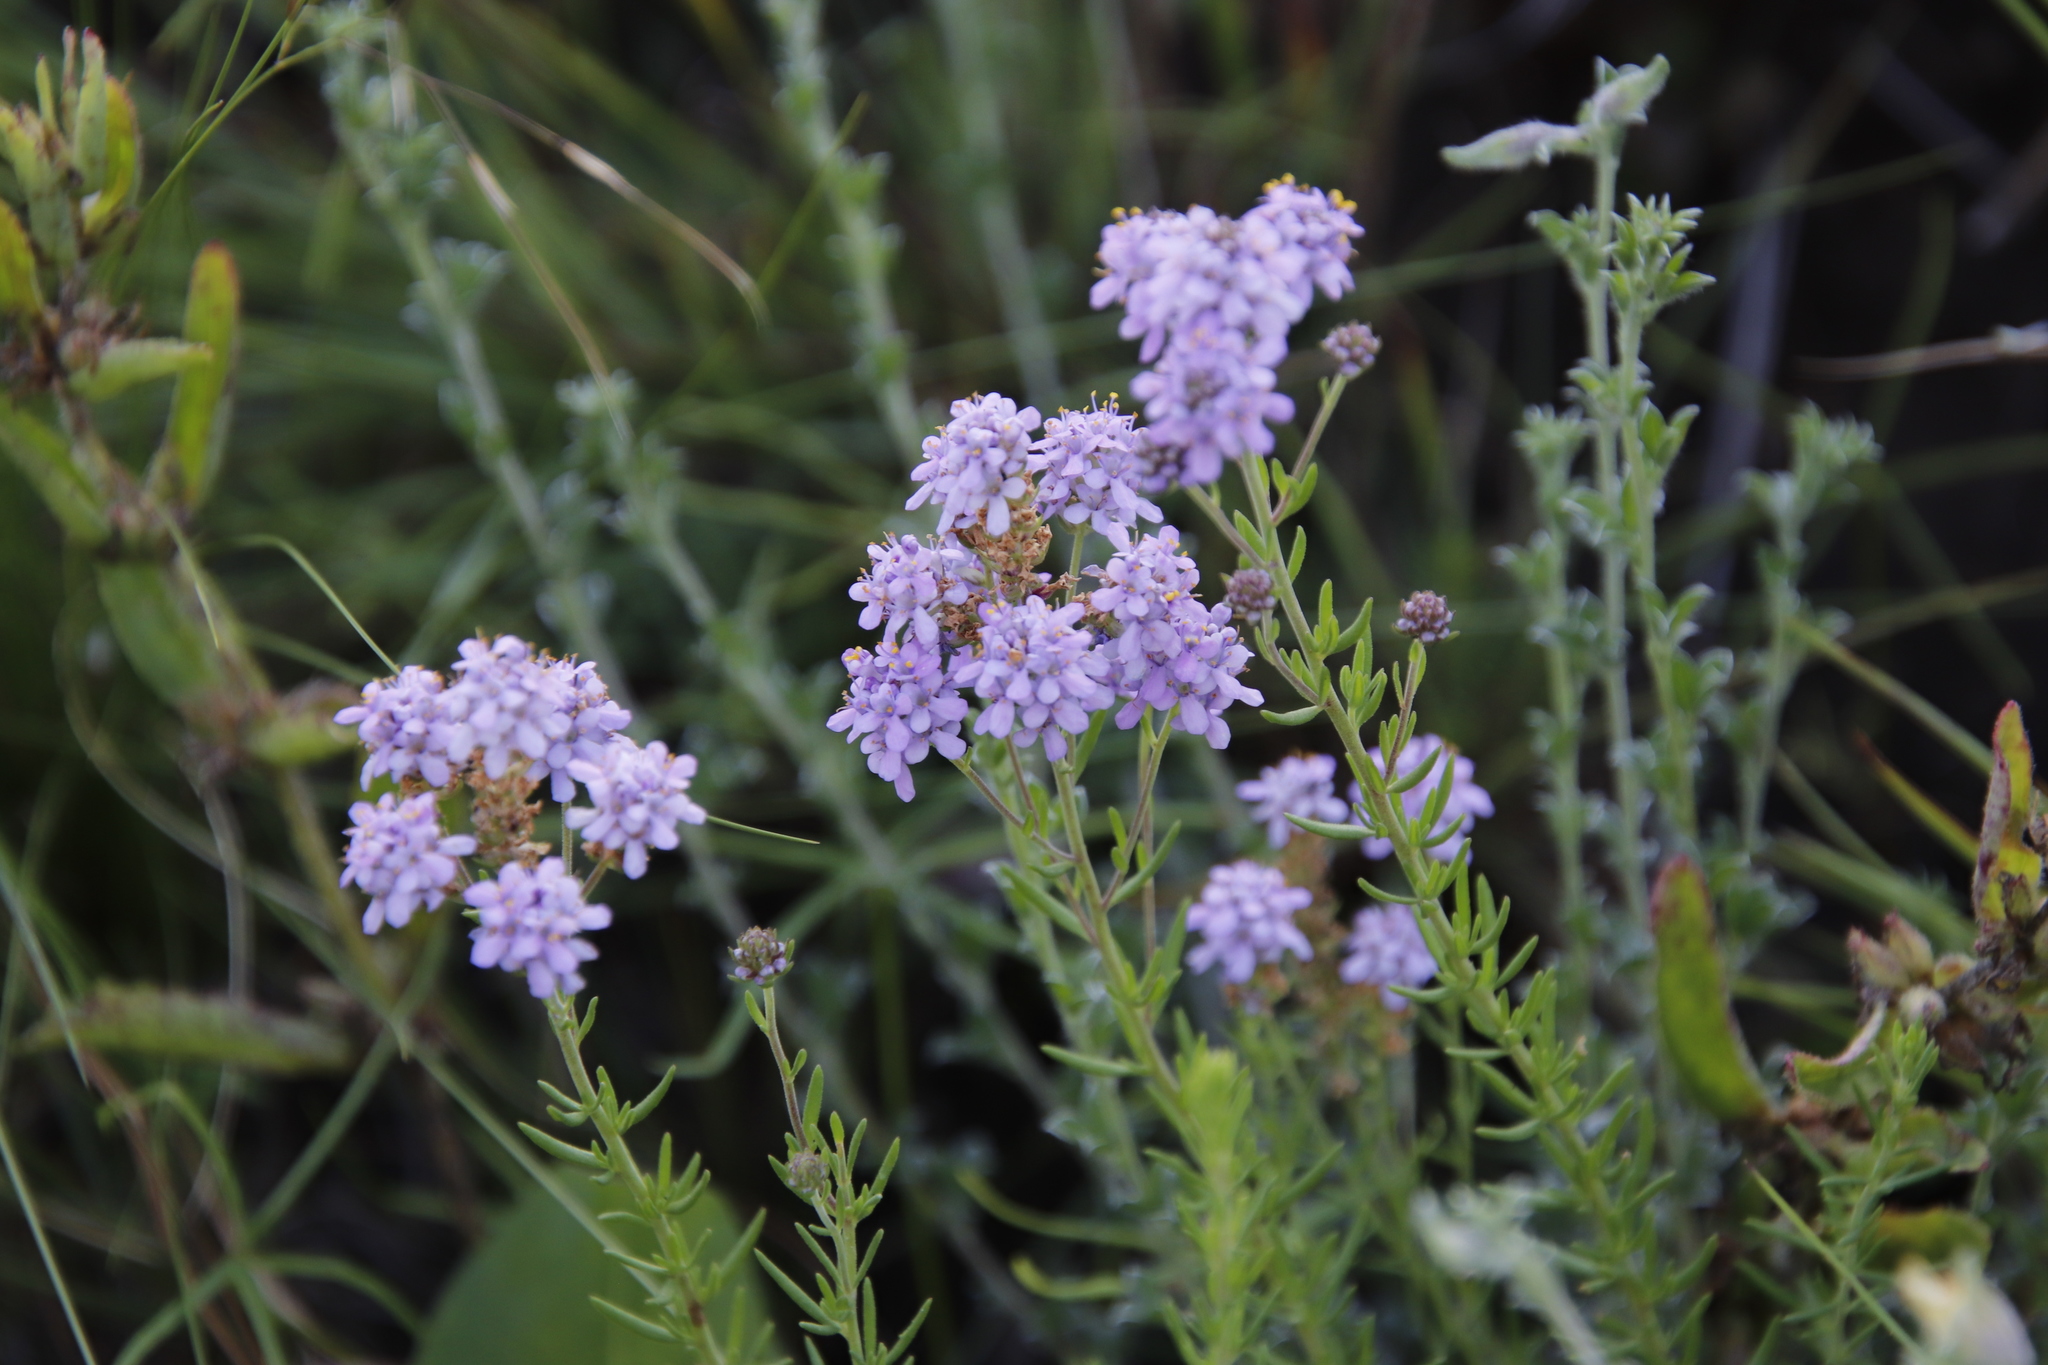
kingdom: Plantae
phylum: Tracheophyta
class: Magnoliopsida
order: Lamiales
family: Scrophulariaceae
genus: Selago
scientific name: Selago galpinii
